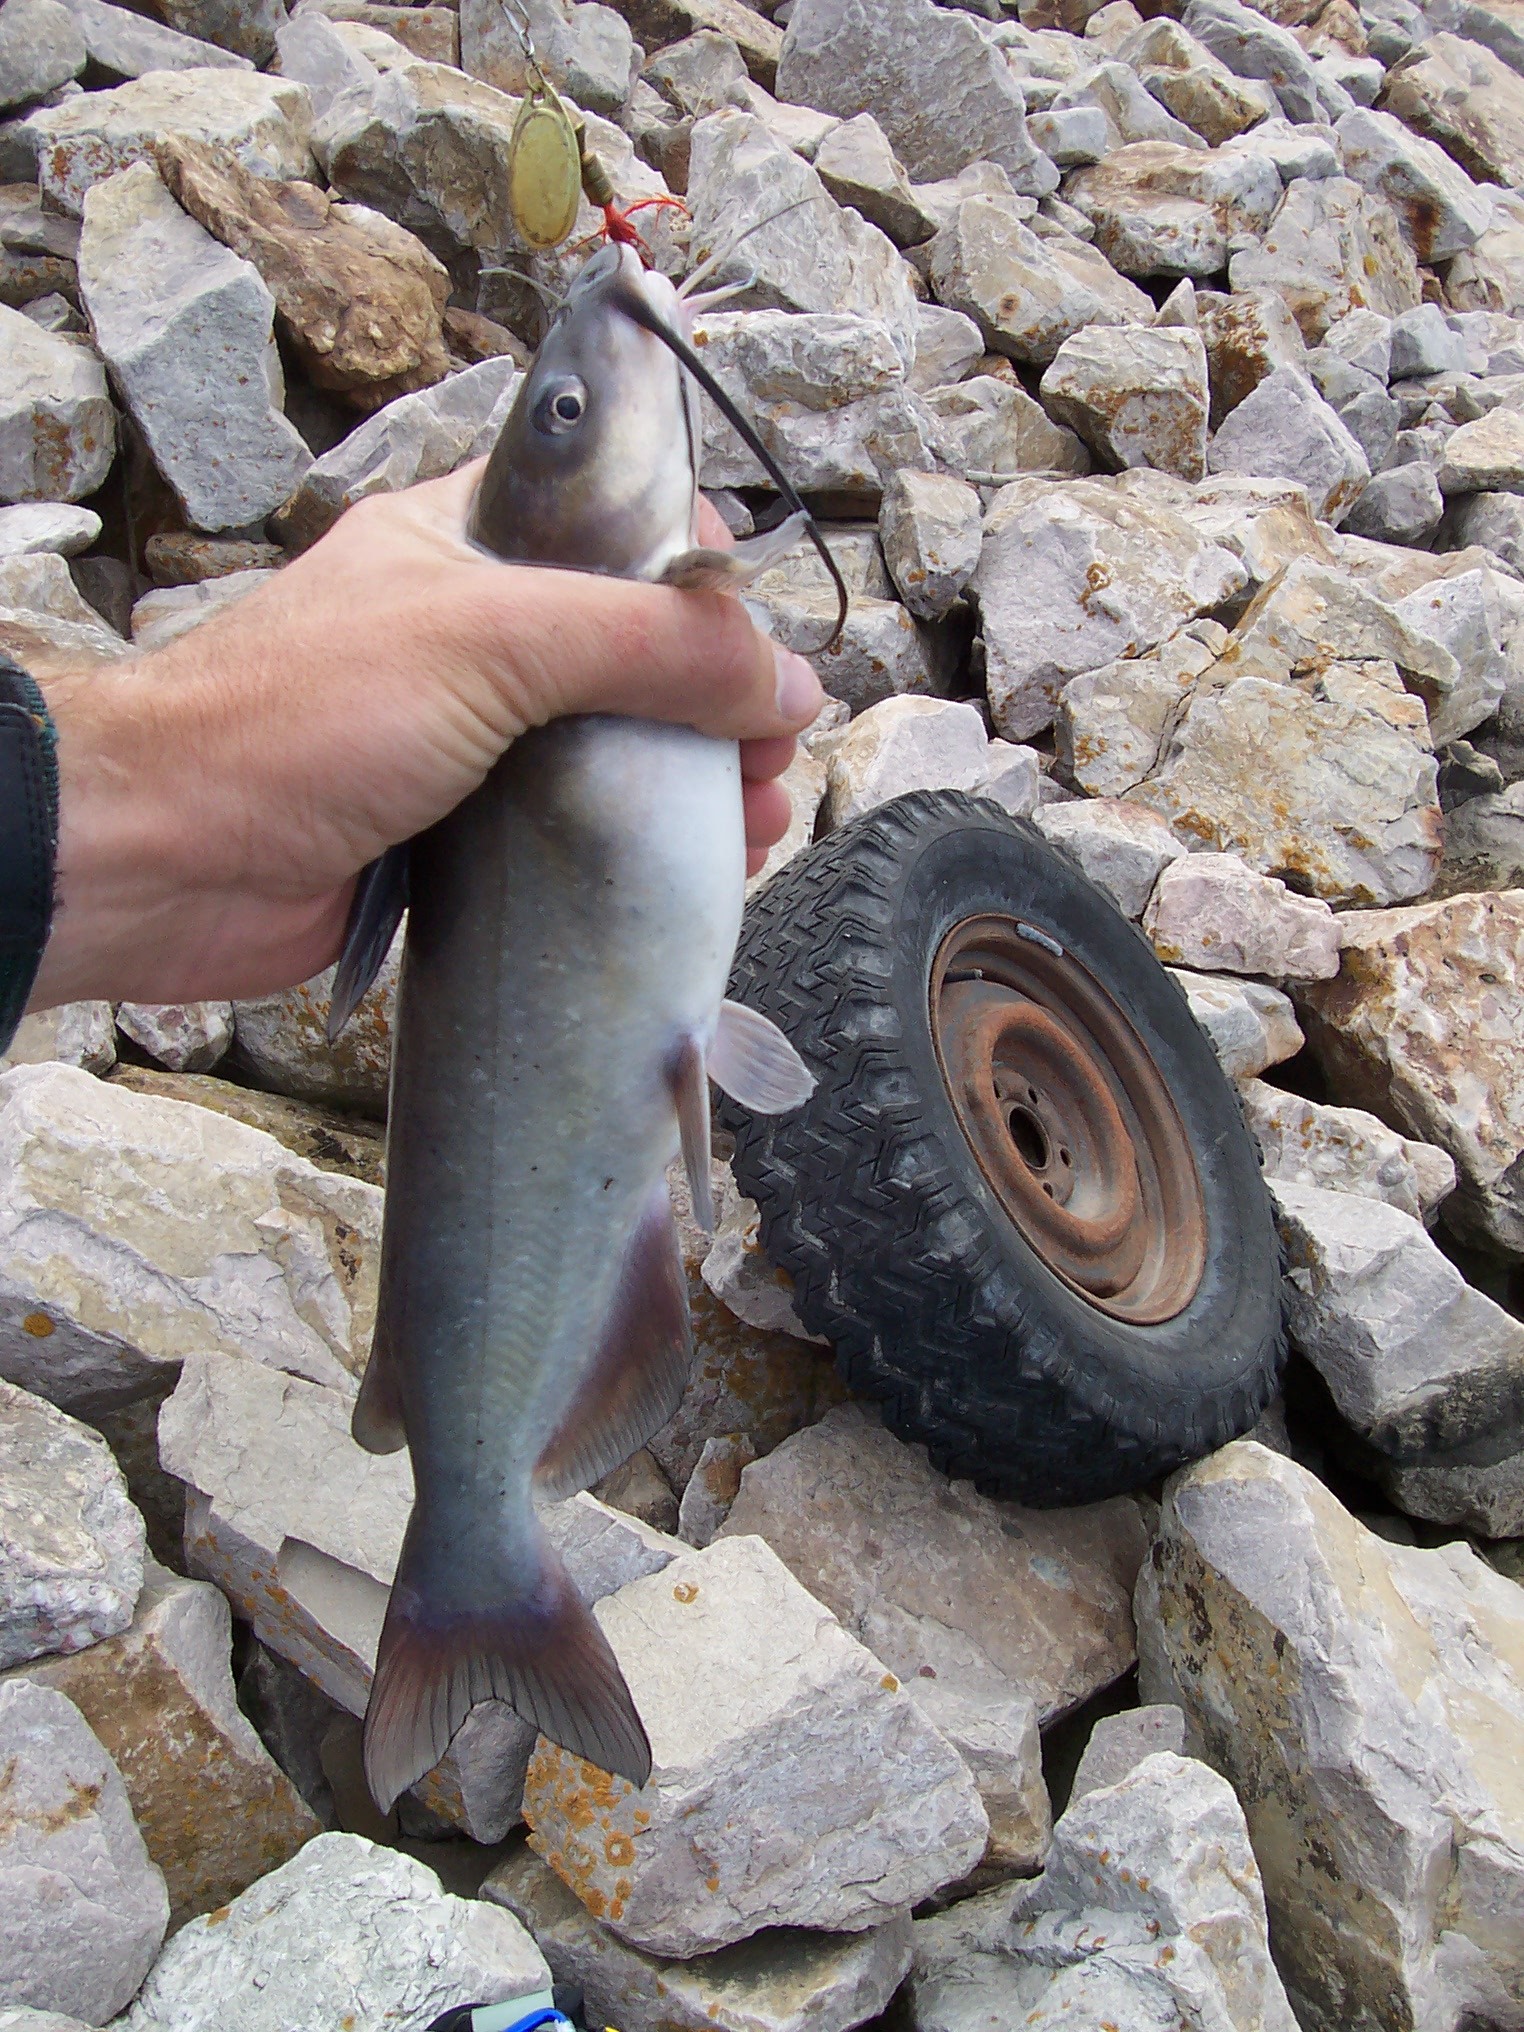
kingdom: Animalia
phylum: Chordata
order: Siluriformes
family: Ictaluridae
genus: Ictalurus
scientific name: Ictalurus punctatus
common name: Channel catfish
